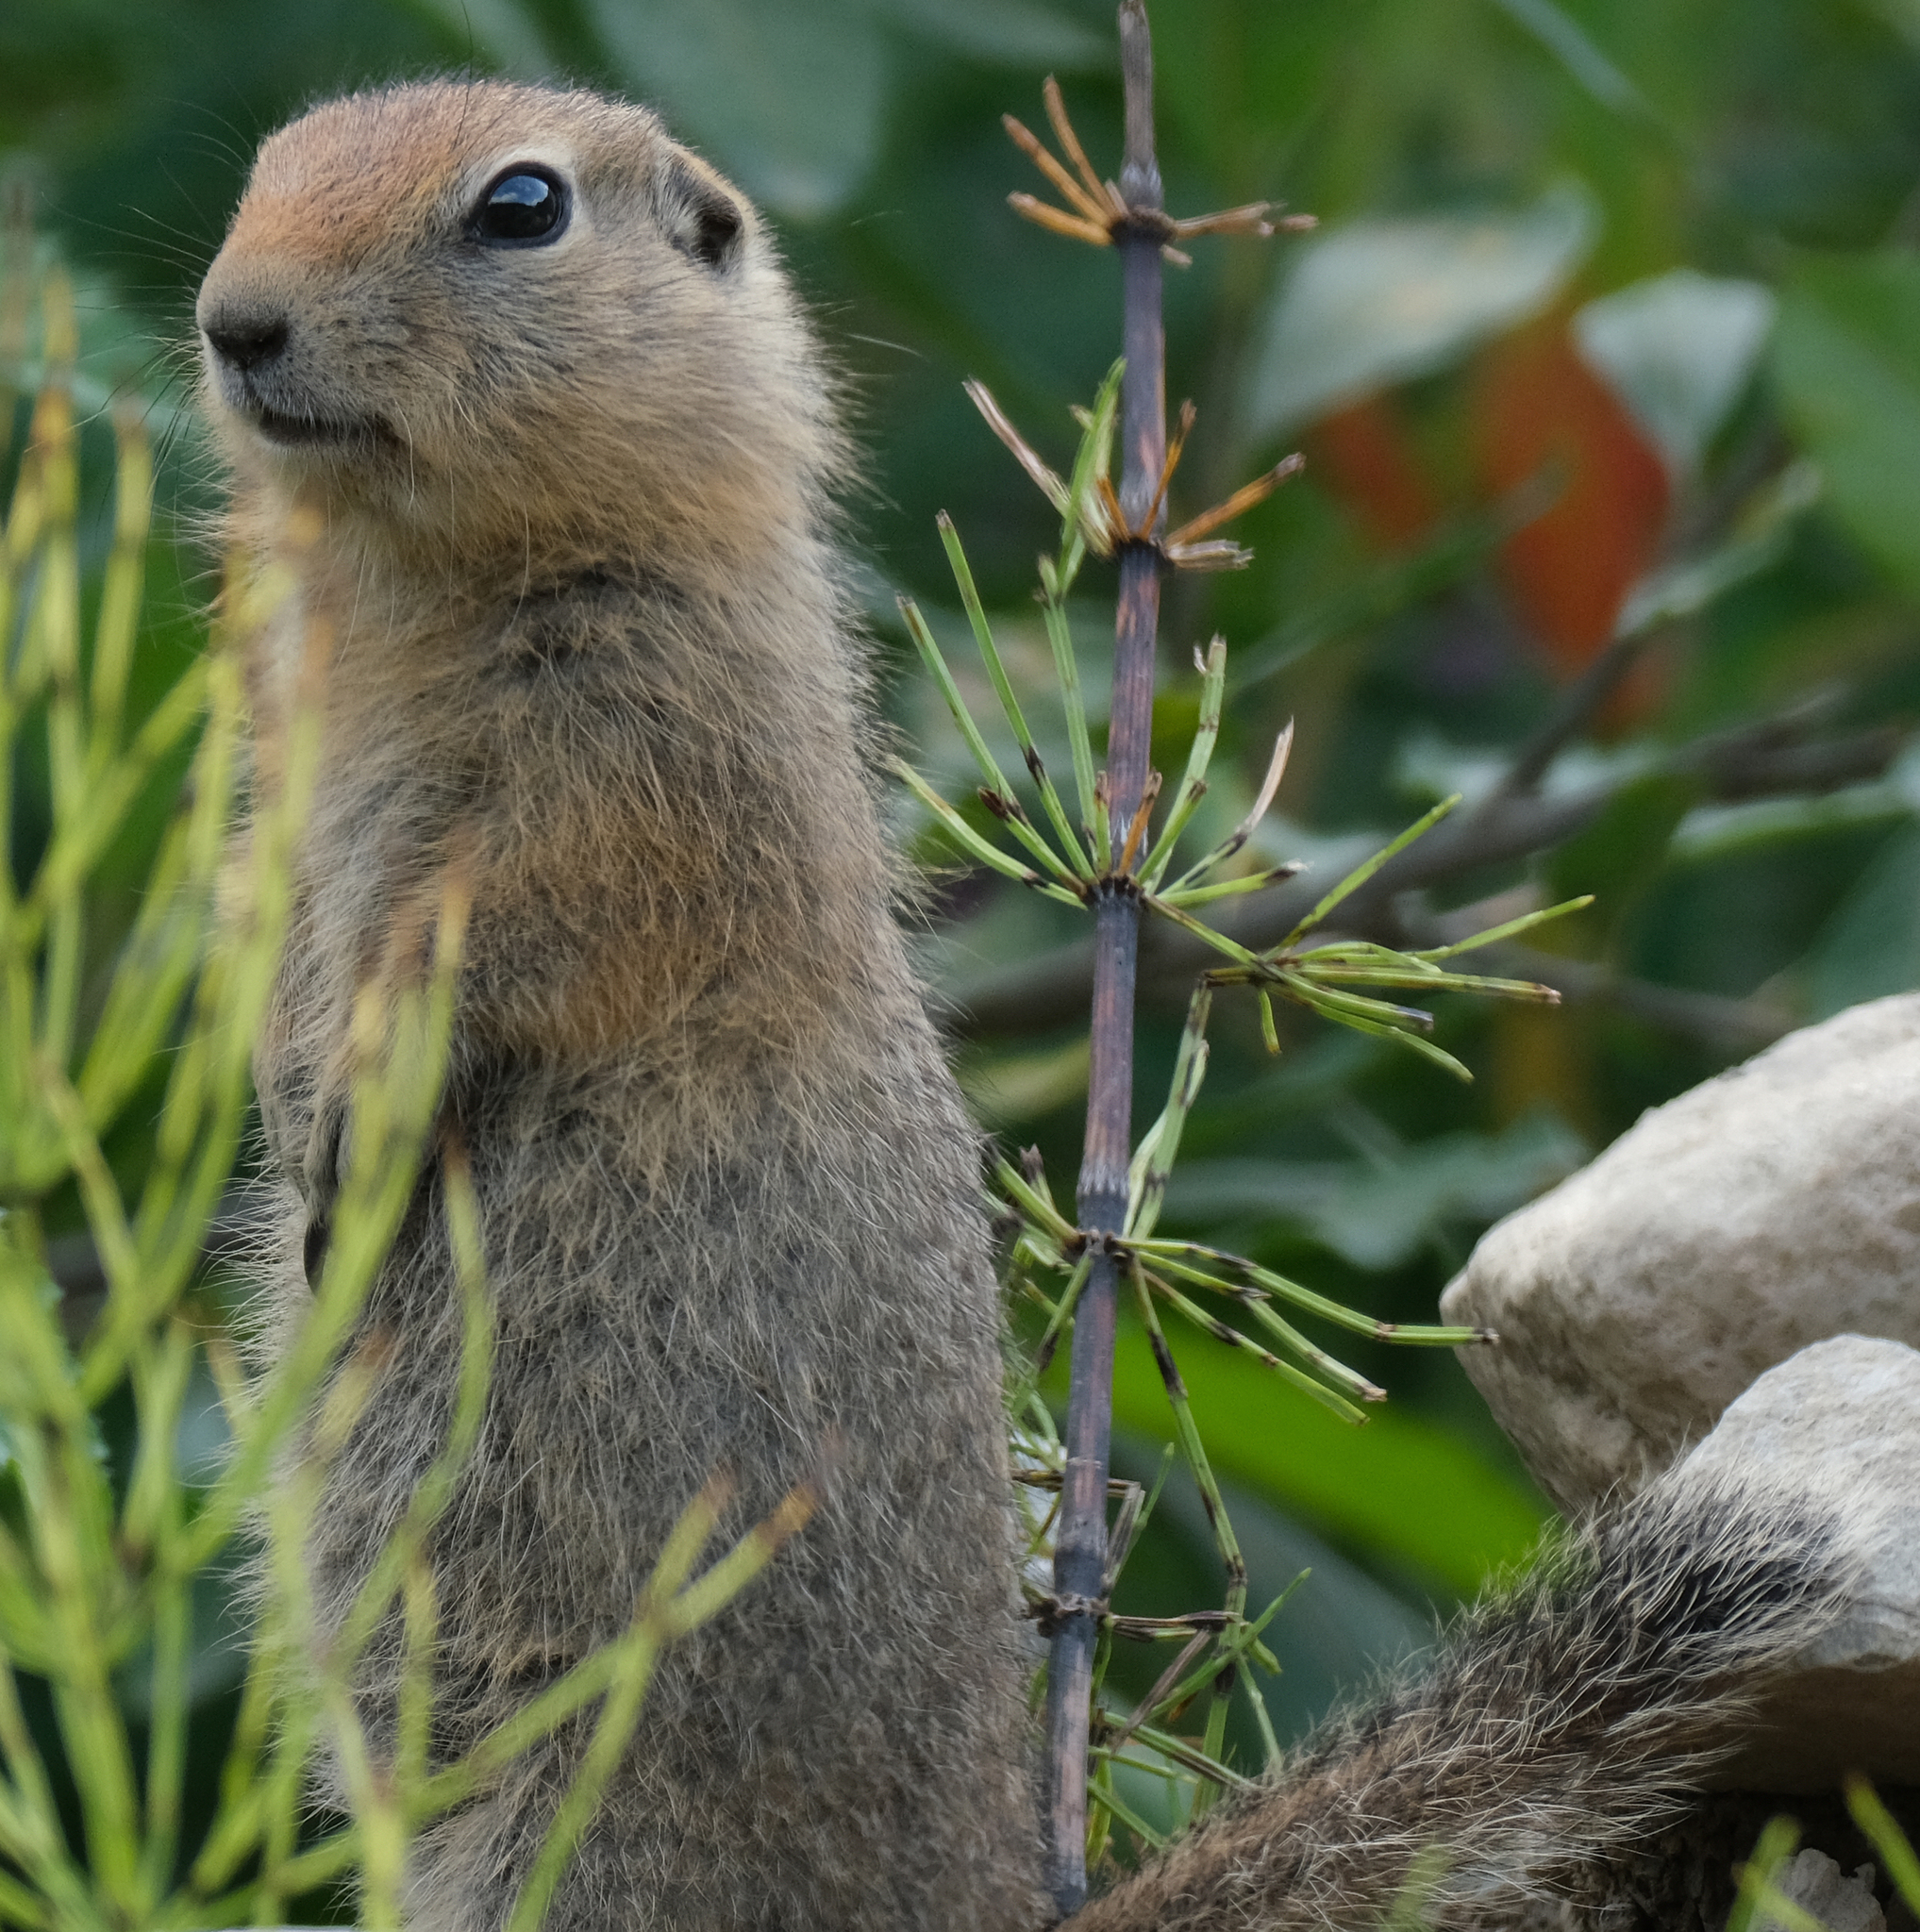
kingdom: Animalia
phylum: Chordata
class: Mammalia
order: Rodentia
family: Sciuridae
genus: Urocitellus
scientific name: Urocitellus parryii
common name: Arctic ground squirrel
